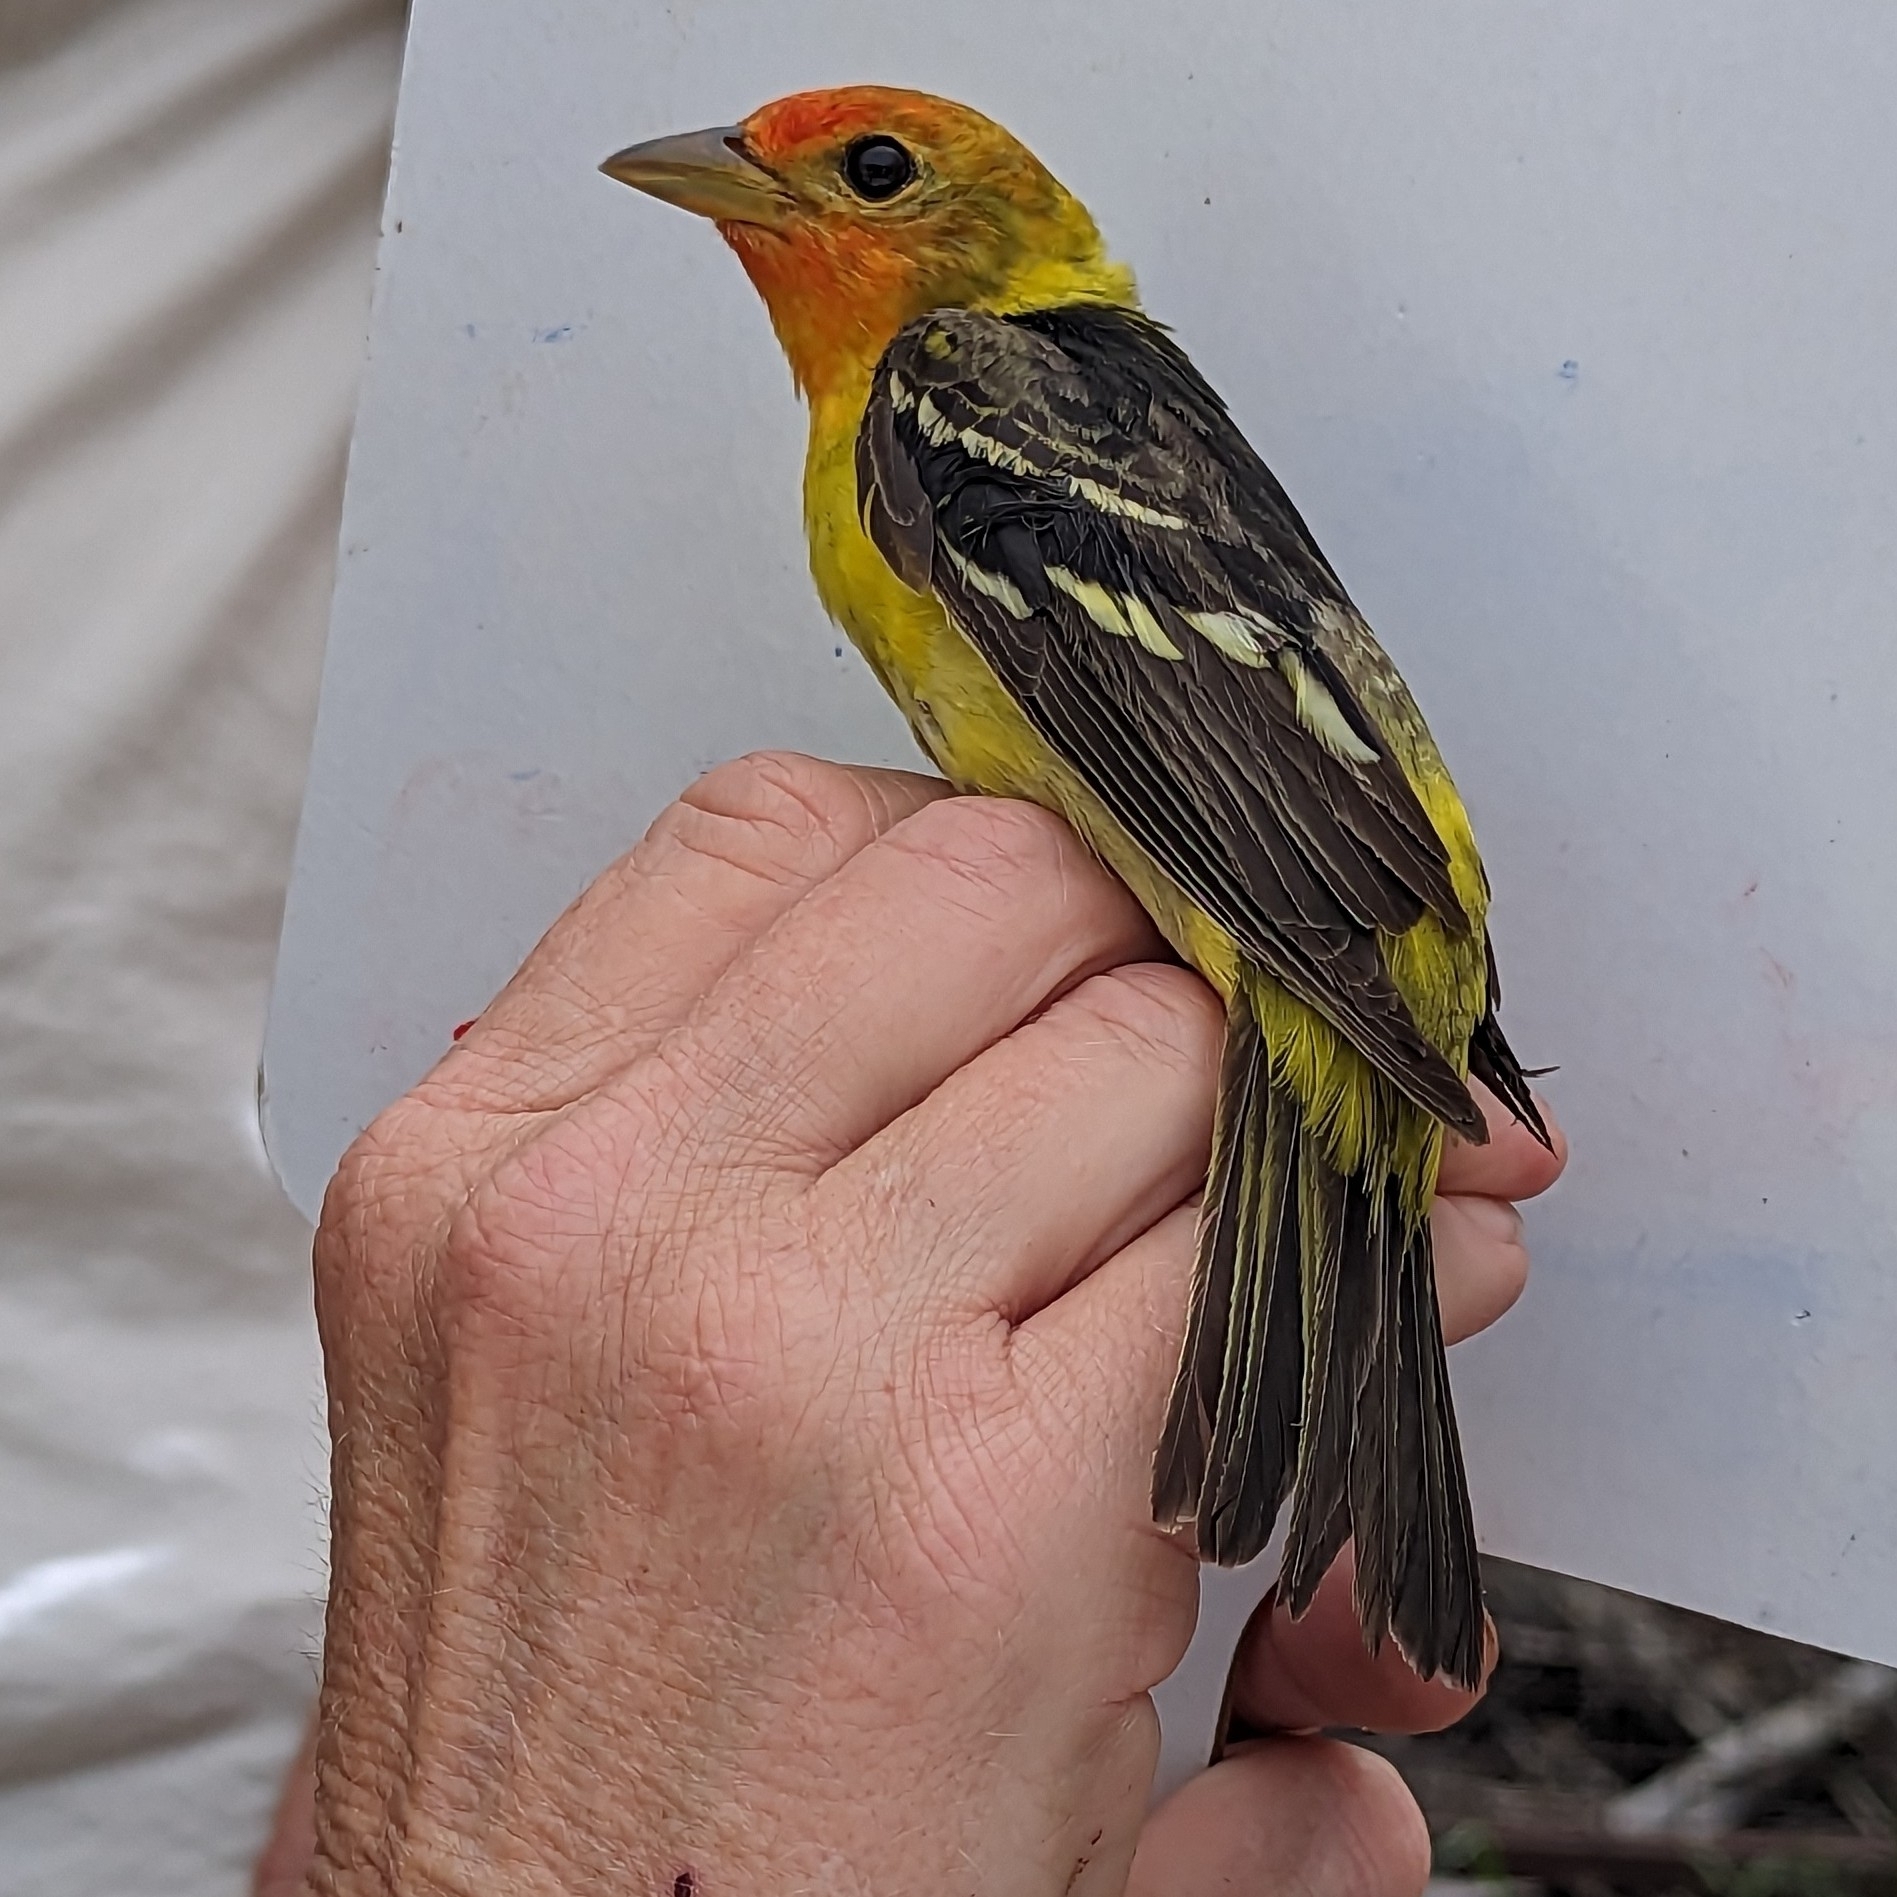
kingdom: Animalia
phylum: Chordata
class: Aves
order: Passeriformes
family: Cardinalidae
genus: Piranga
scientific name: Piranga ludoviciana
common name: Western tanager
